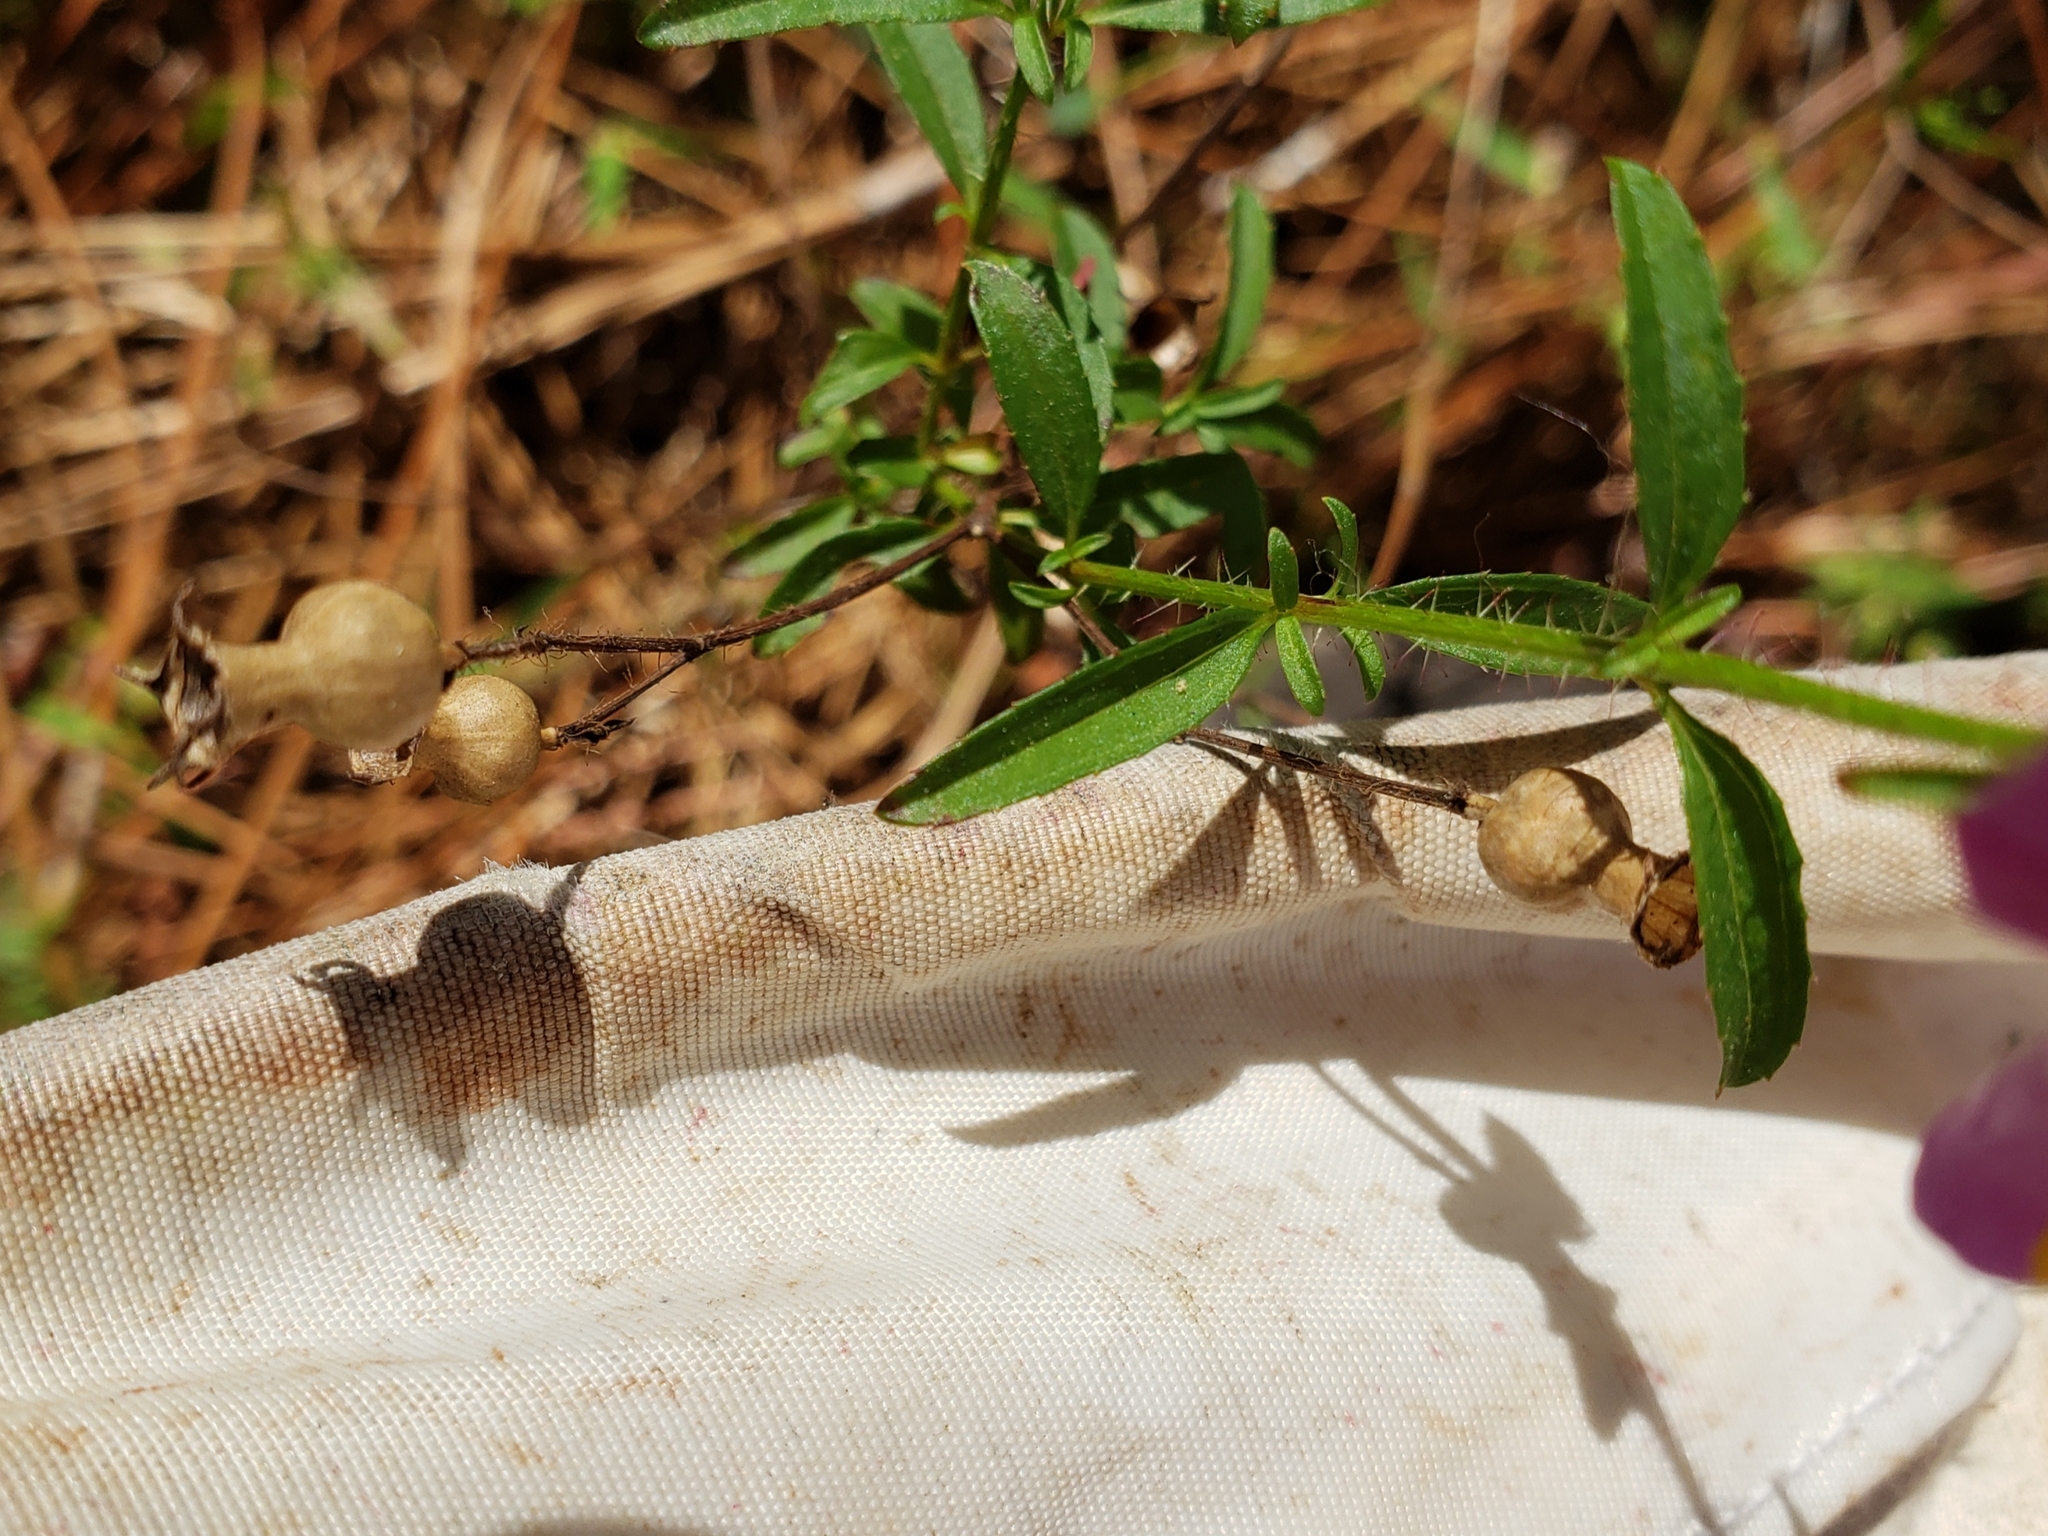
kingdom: Plantae
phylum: Tracheophyta
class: Magnoliopsida
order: Myrtales
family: Melastomataceae
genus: Rhexia
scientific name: Rhexia mariana
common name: Dull meadow-pitcher
